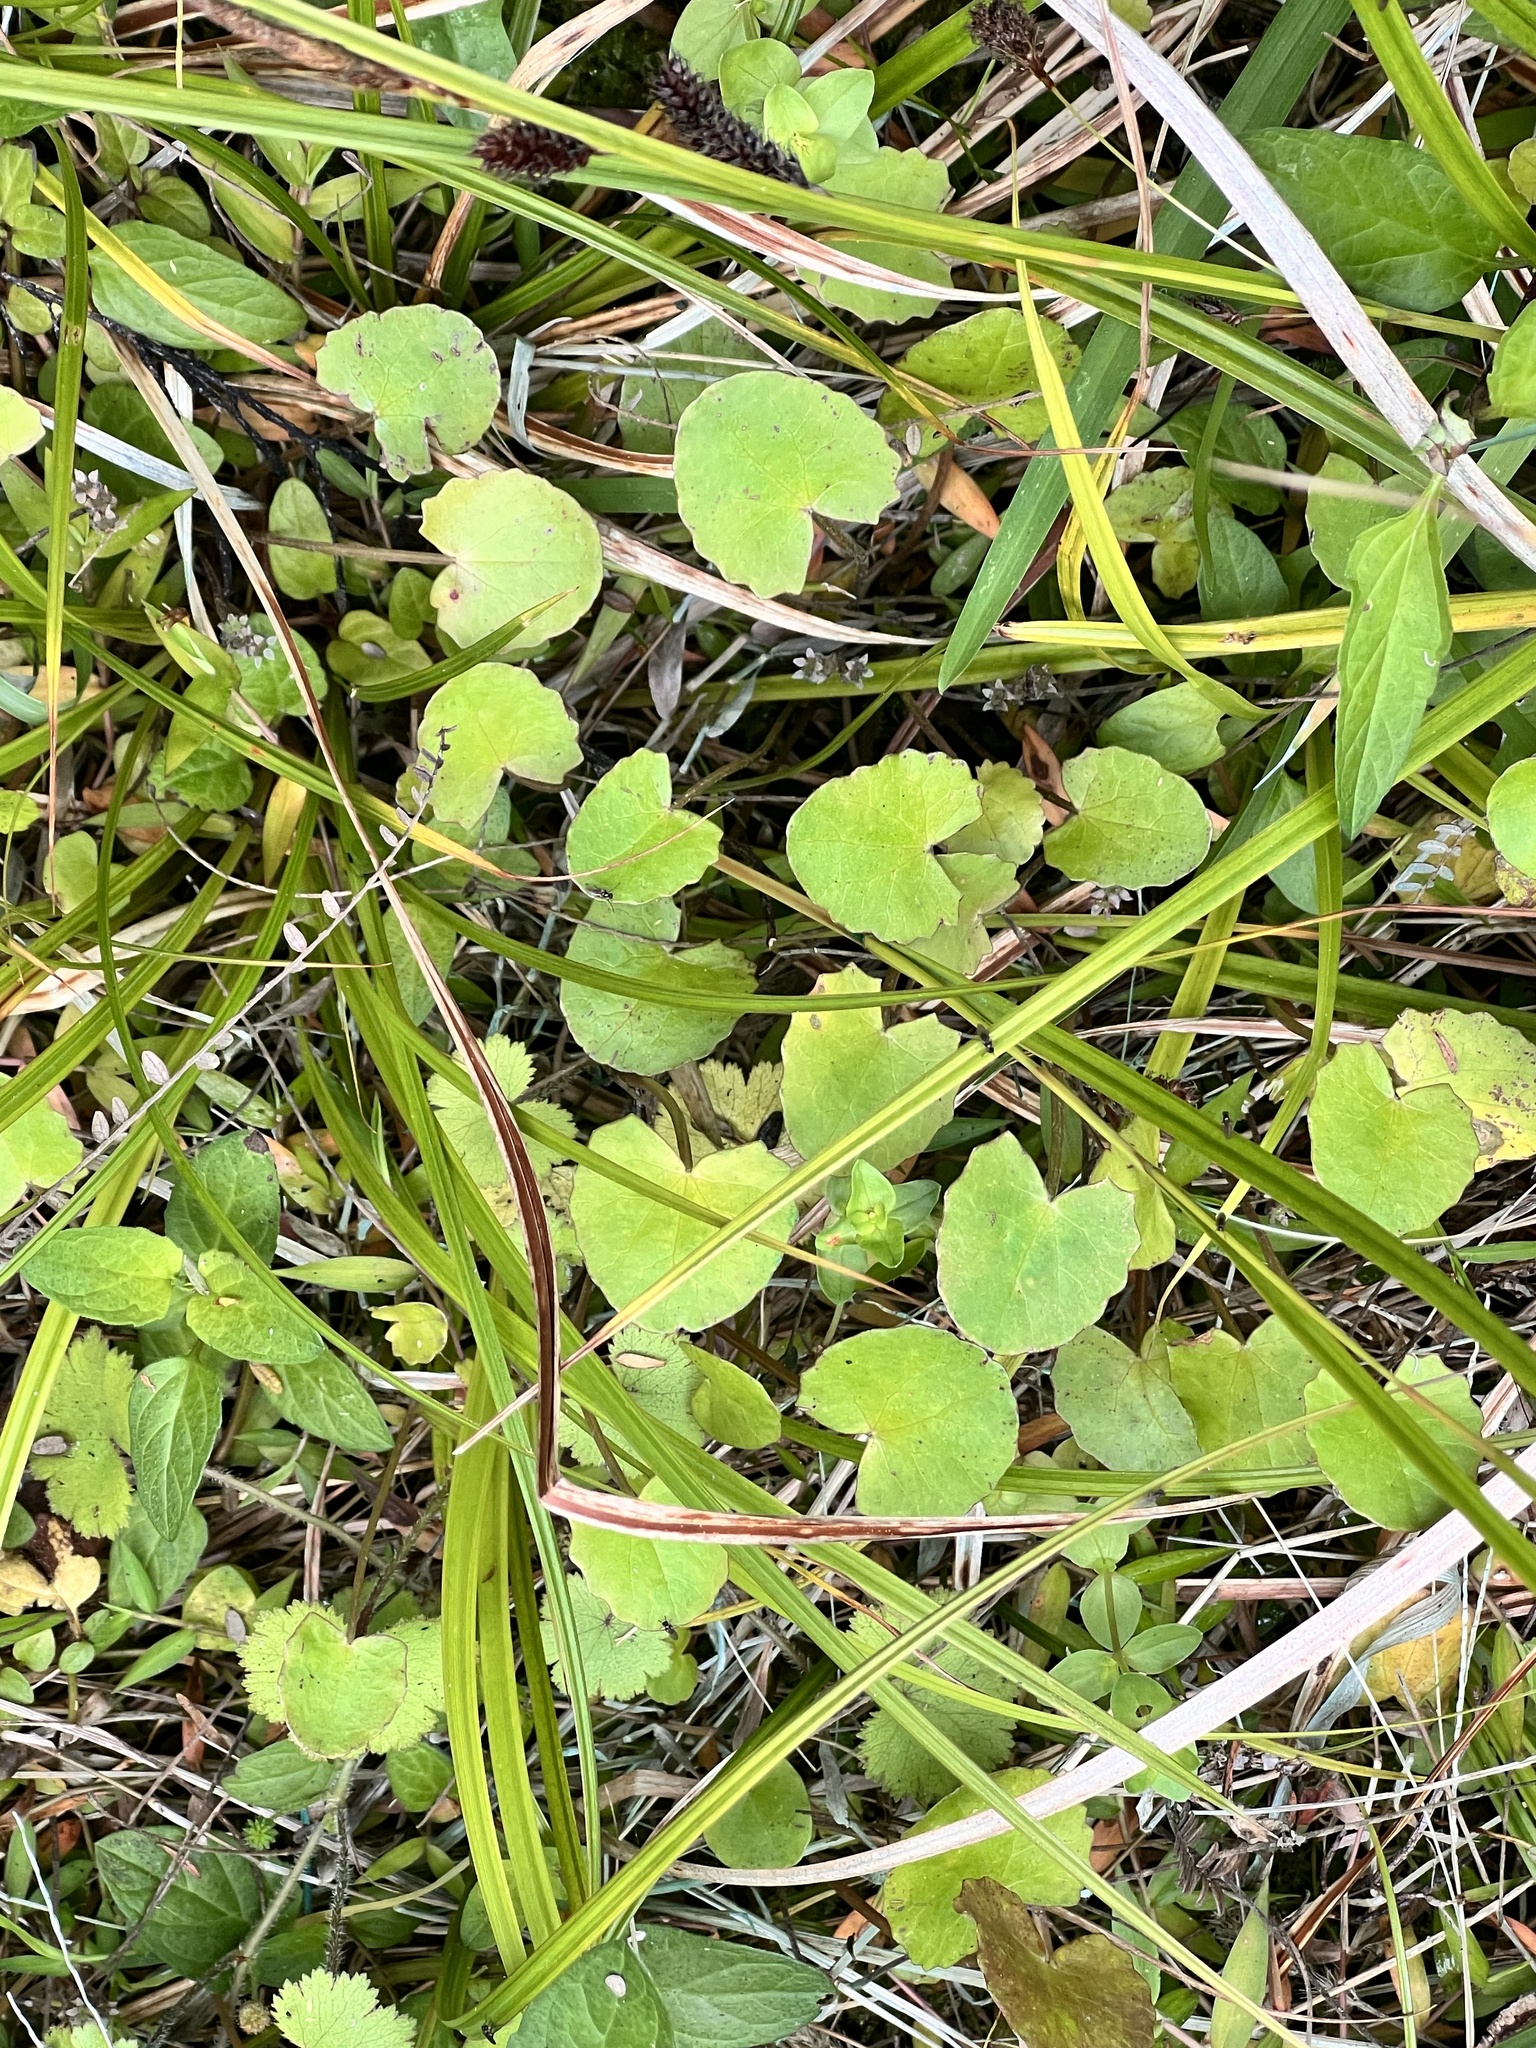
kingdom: Plantae
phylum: Tracheophyta
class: Magnoliopsida
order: Apiales
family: Apiaceae
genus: Centella
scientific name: Centella uniflora
